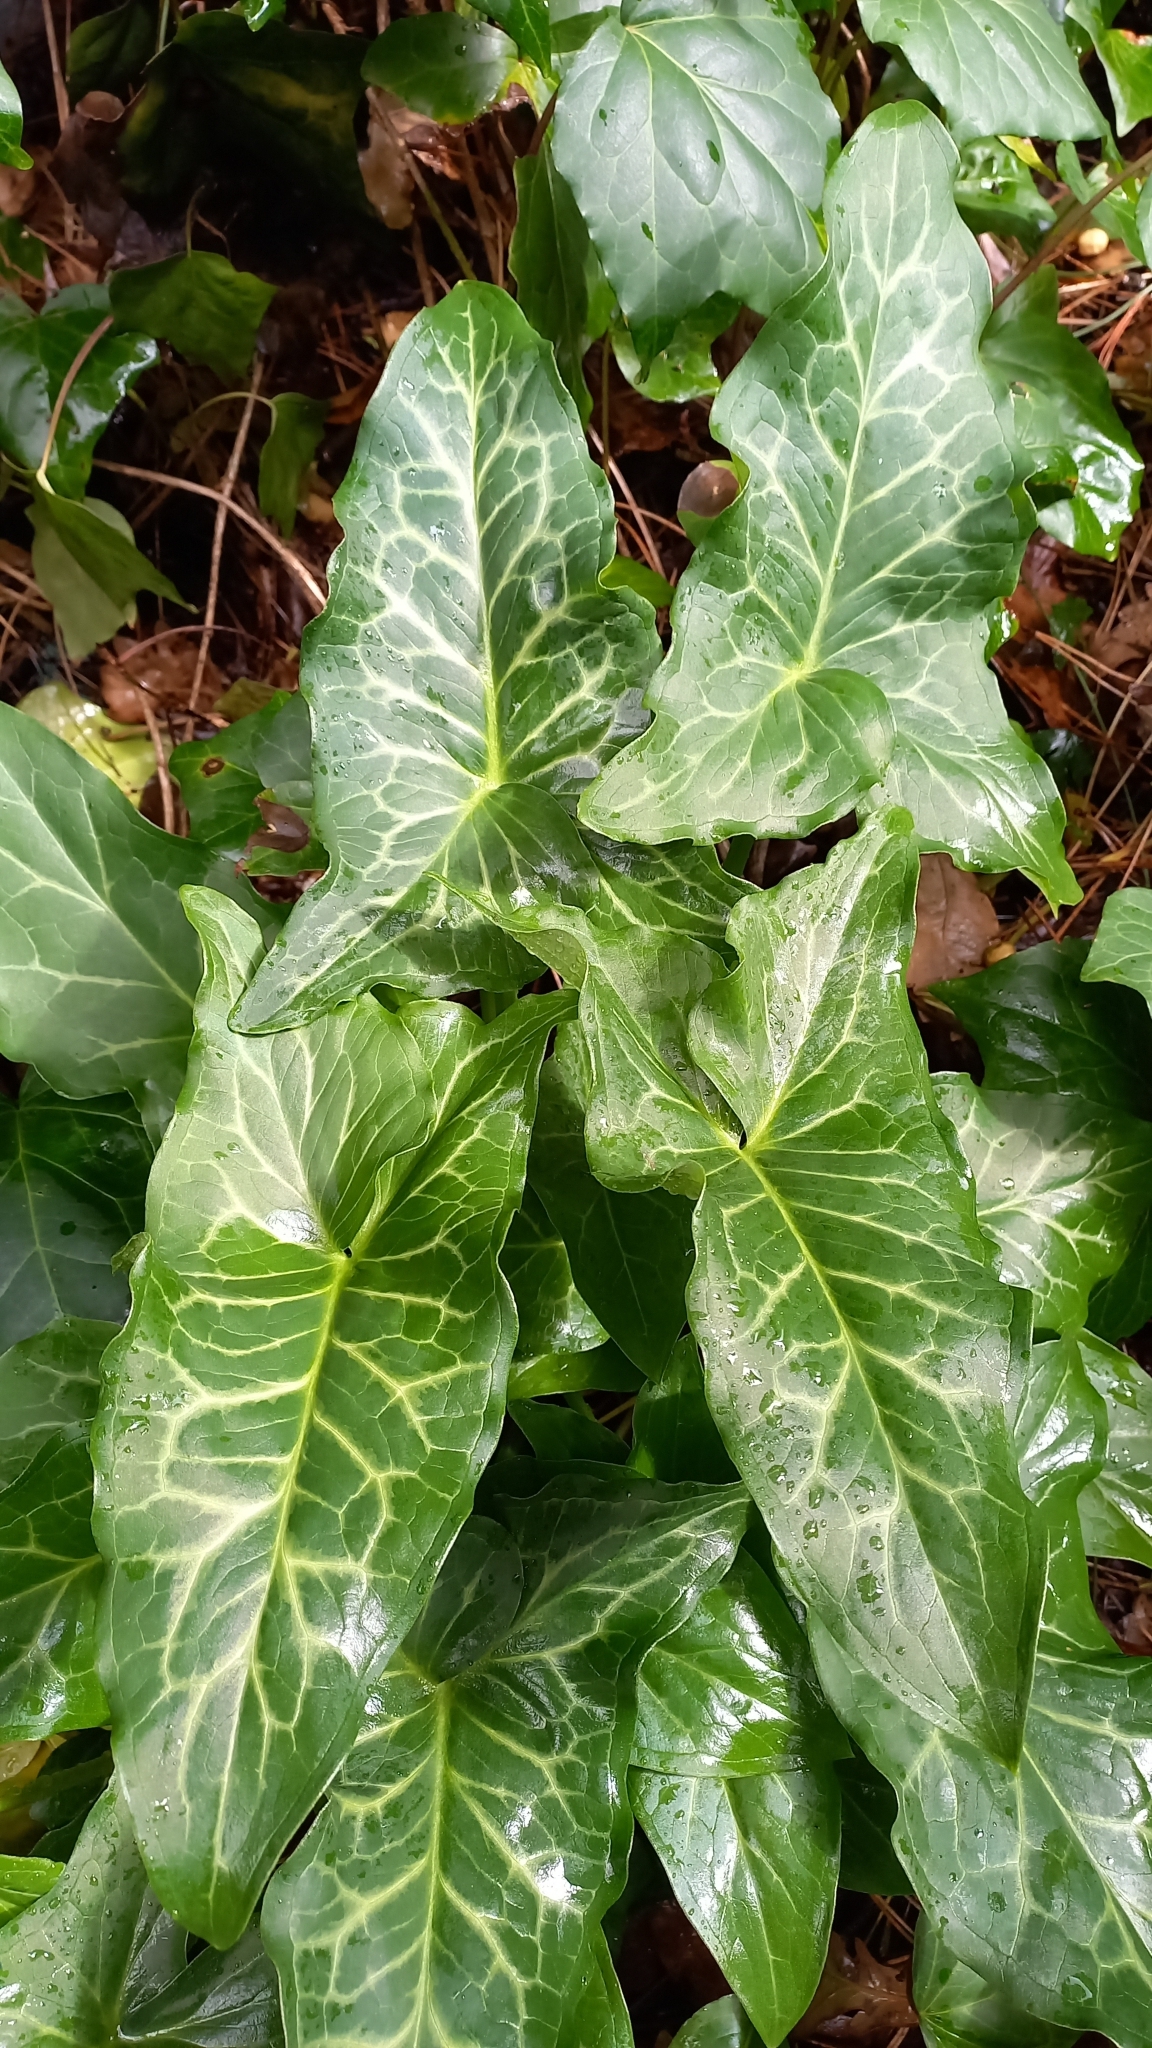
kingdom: Plantae
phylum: Tracheophyta
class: Liliopsida
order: Alismatales
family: Araceae
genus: Arum
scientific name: Arum italicum
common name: Italian lords-and-ladies
